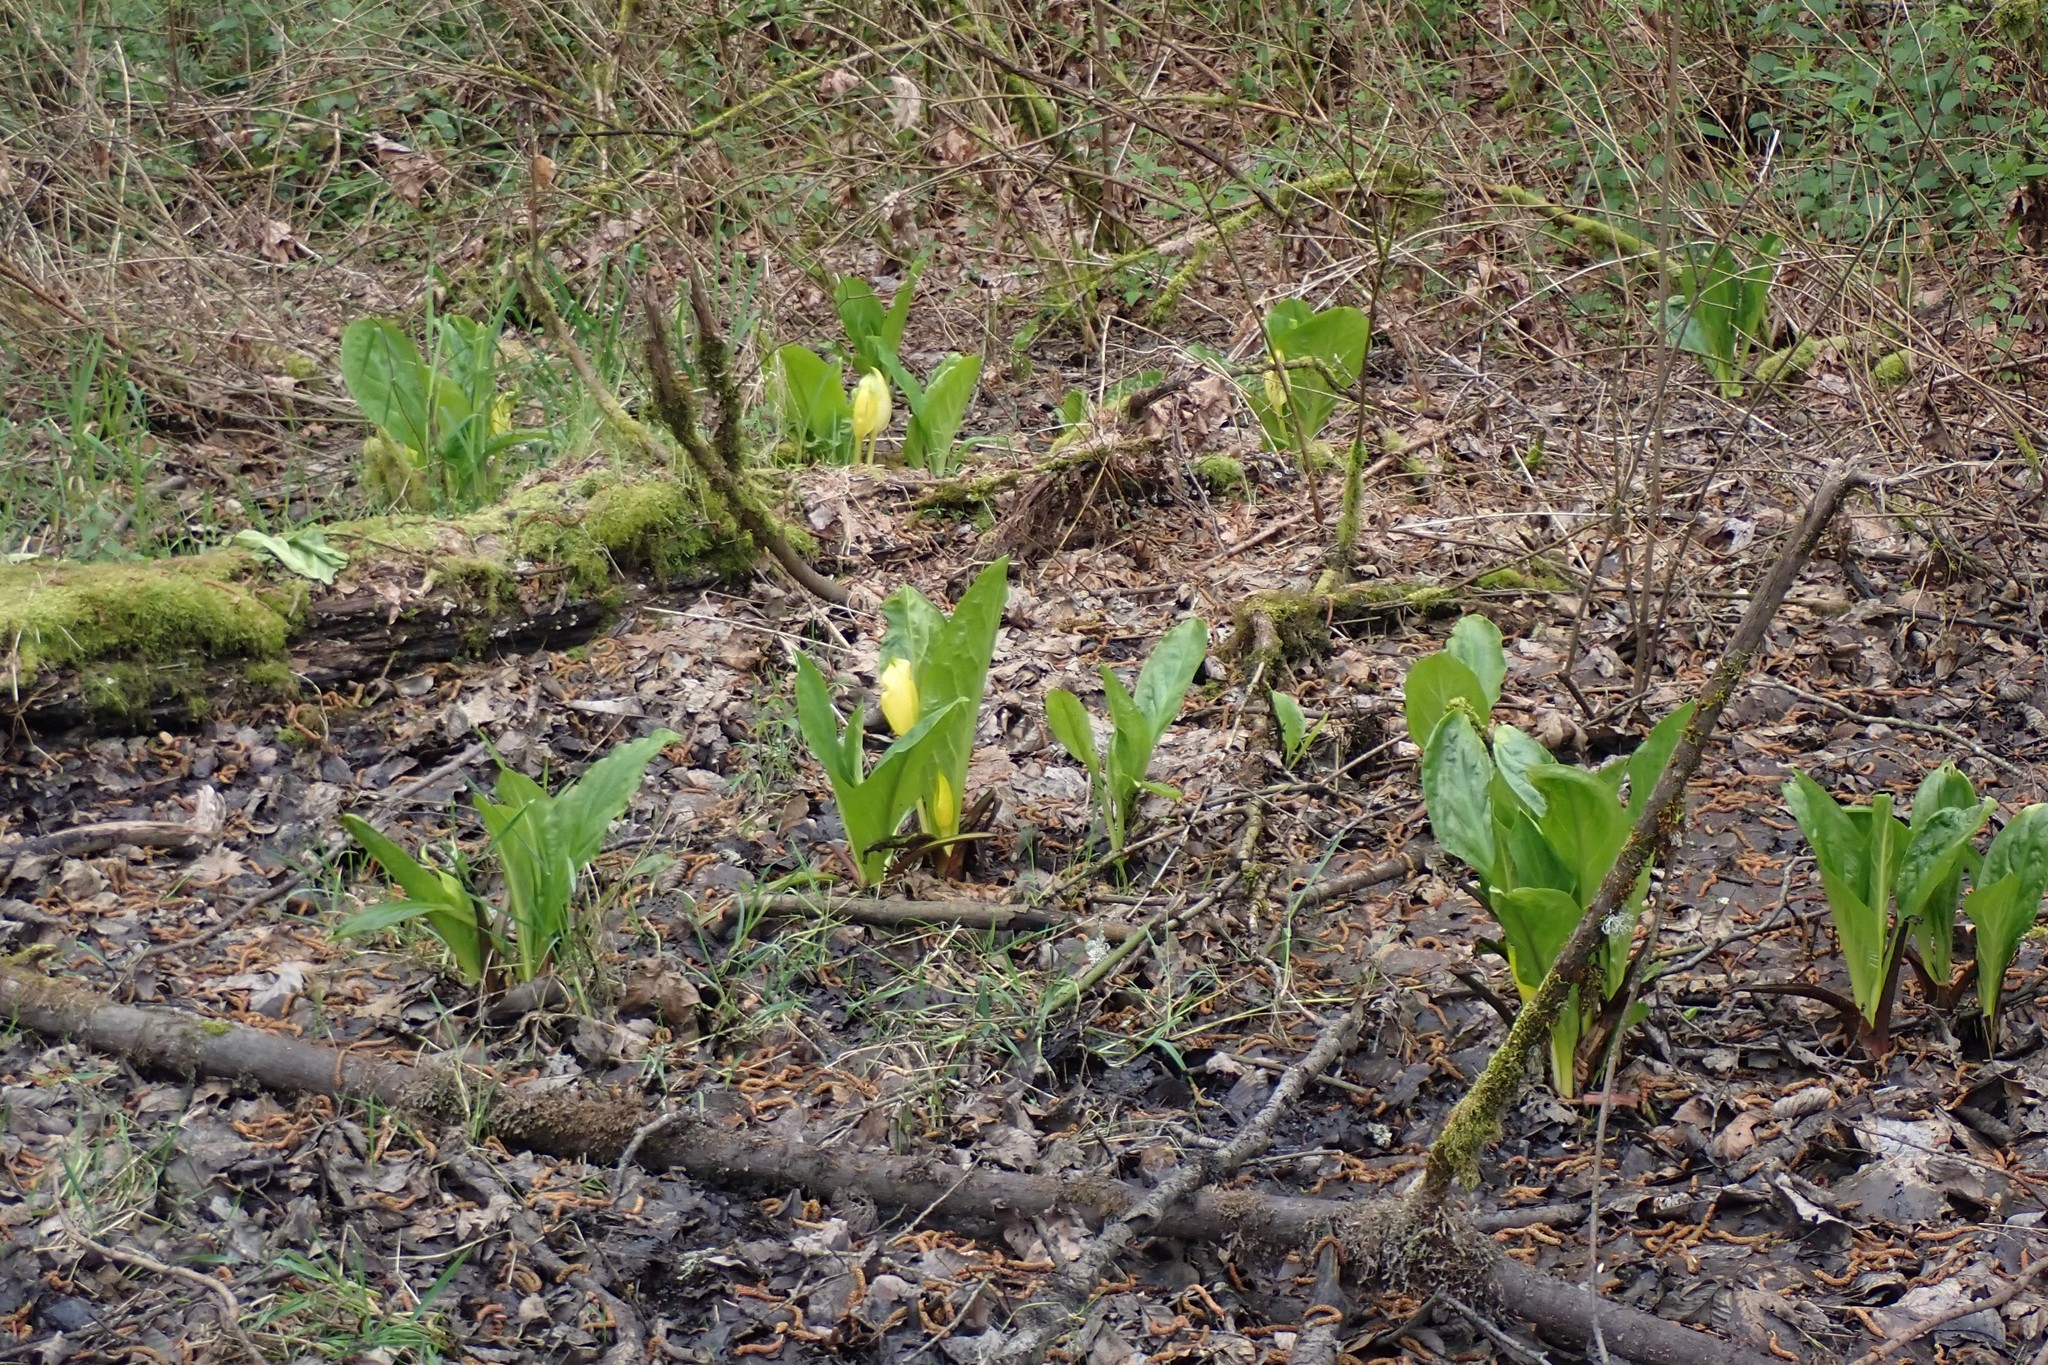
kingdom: Plantae
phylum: Tracheophyta
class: Liliopsida
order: Alismatales
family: Araceae
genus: Lysichiton
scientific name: Lysichiton americanus
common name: American skunk cabbage
